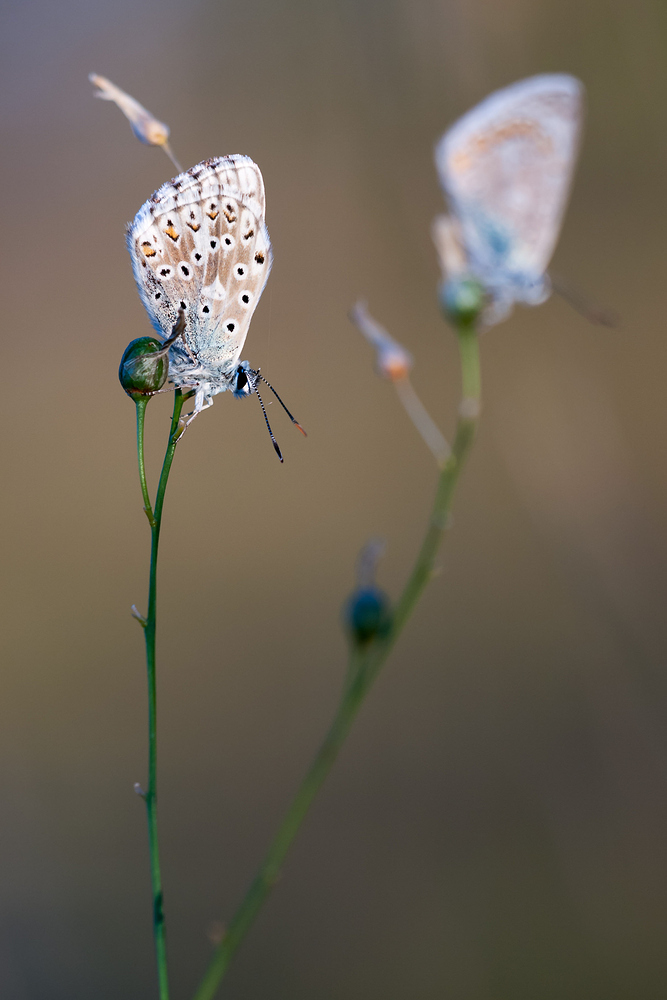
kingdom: Animalia
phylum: Arthropoda
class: Insecta
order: Lepidoptera
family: Lycaenidae
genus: Lysandra
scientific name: Lysandra coridon
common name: Chalkhill blue
